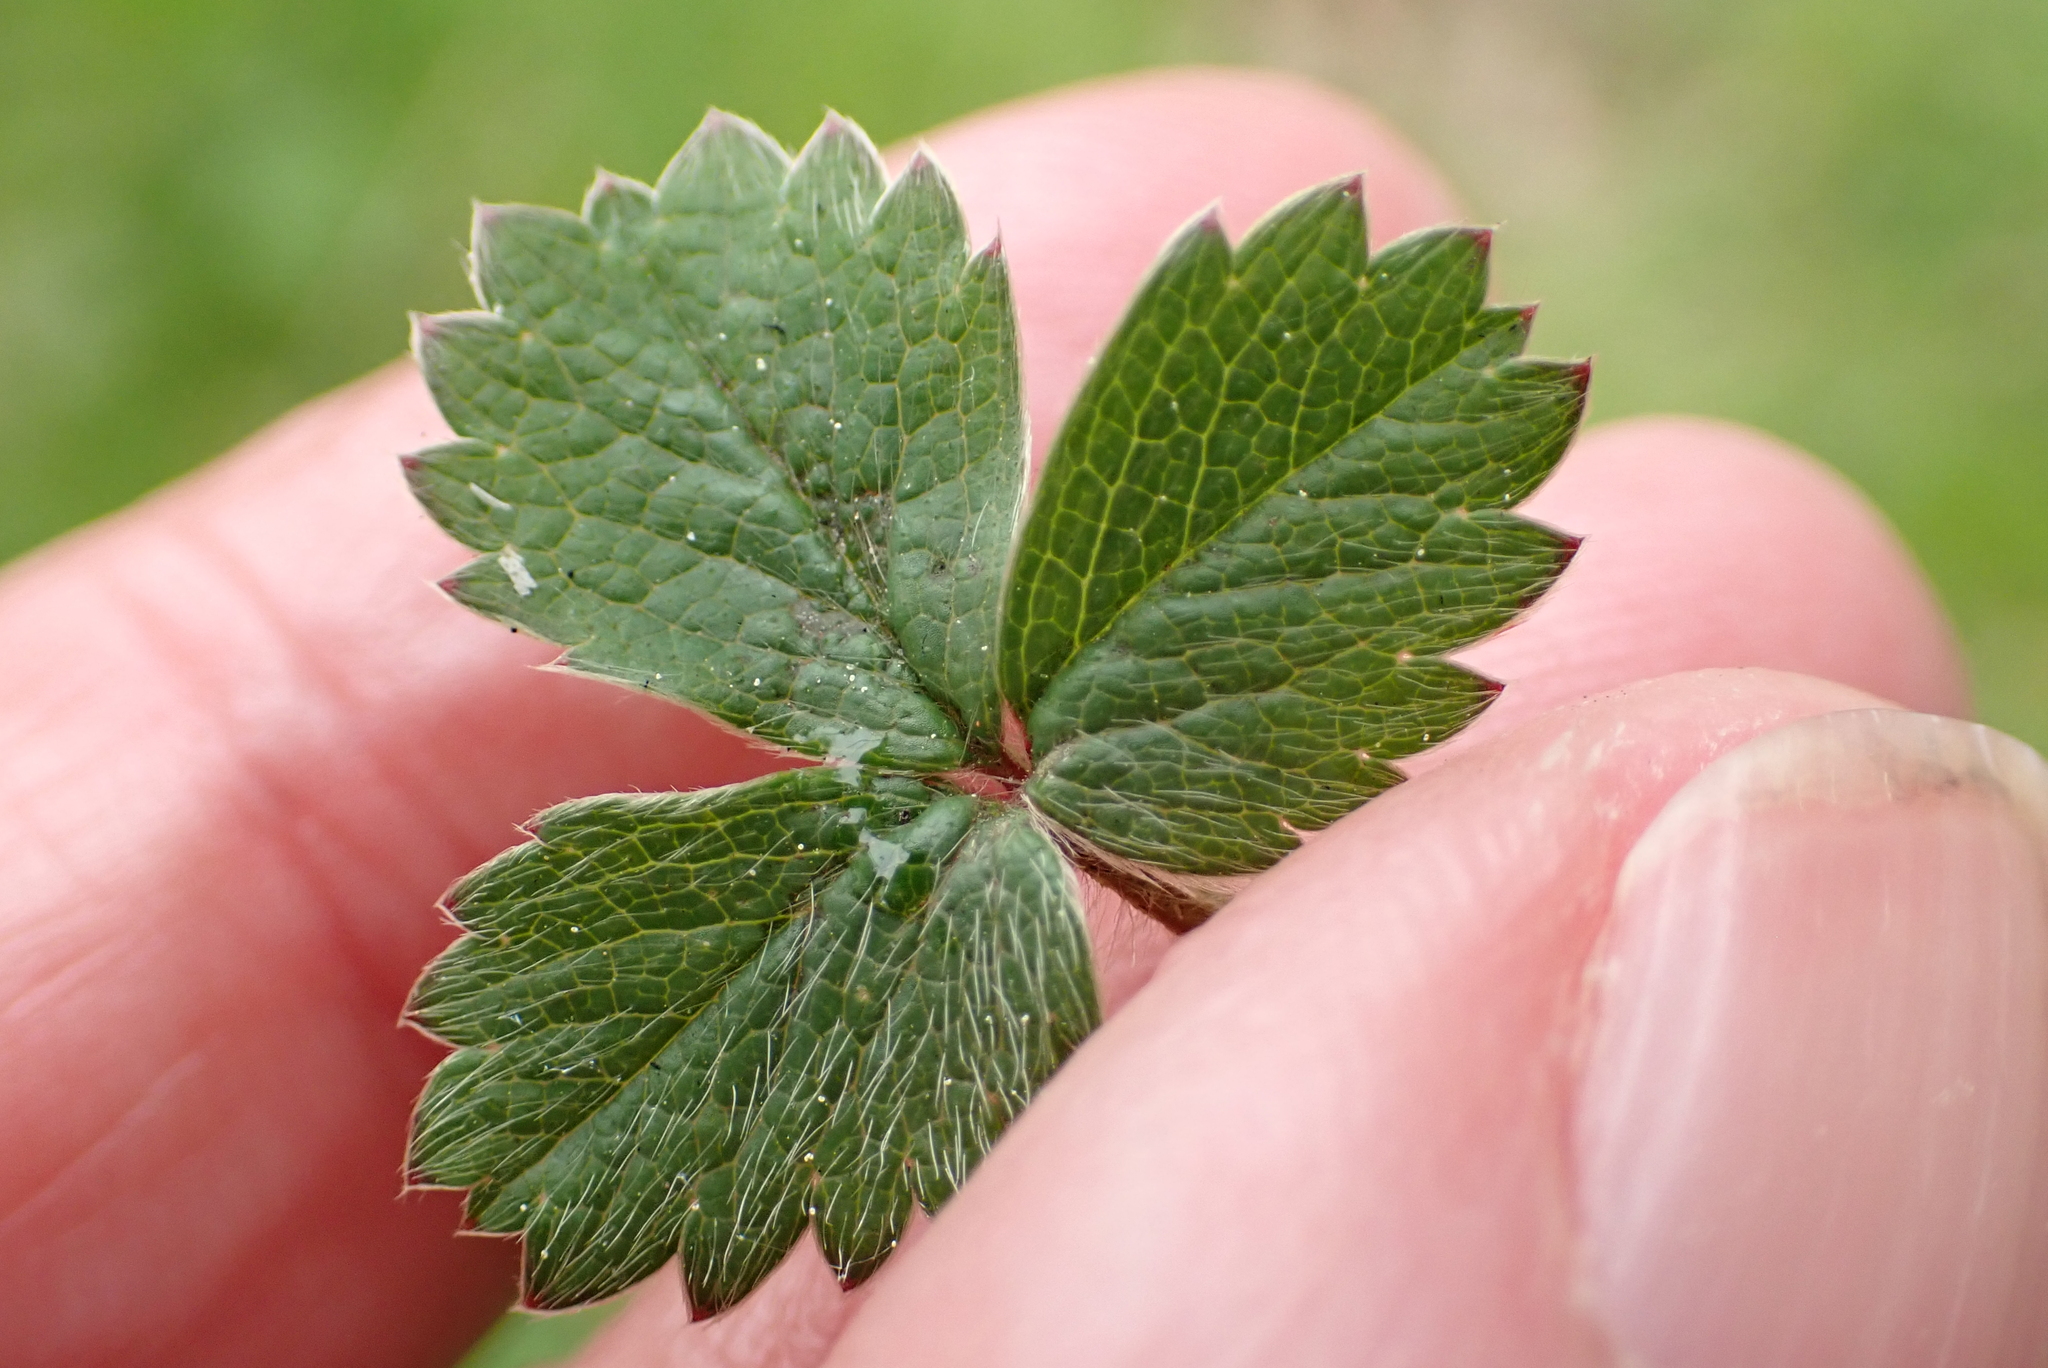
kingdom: Plantae
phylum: Tracheophyta
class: Magnoliopsida
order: Rosales
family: Rosaceae
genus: Potentilla
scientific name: Potentilla sterilis
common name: Barren strawberry
